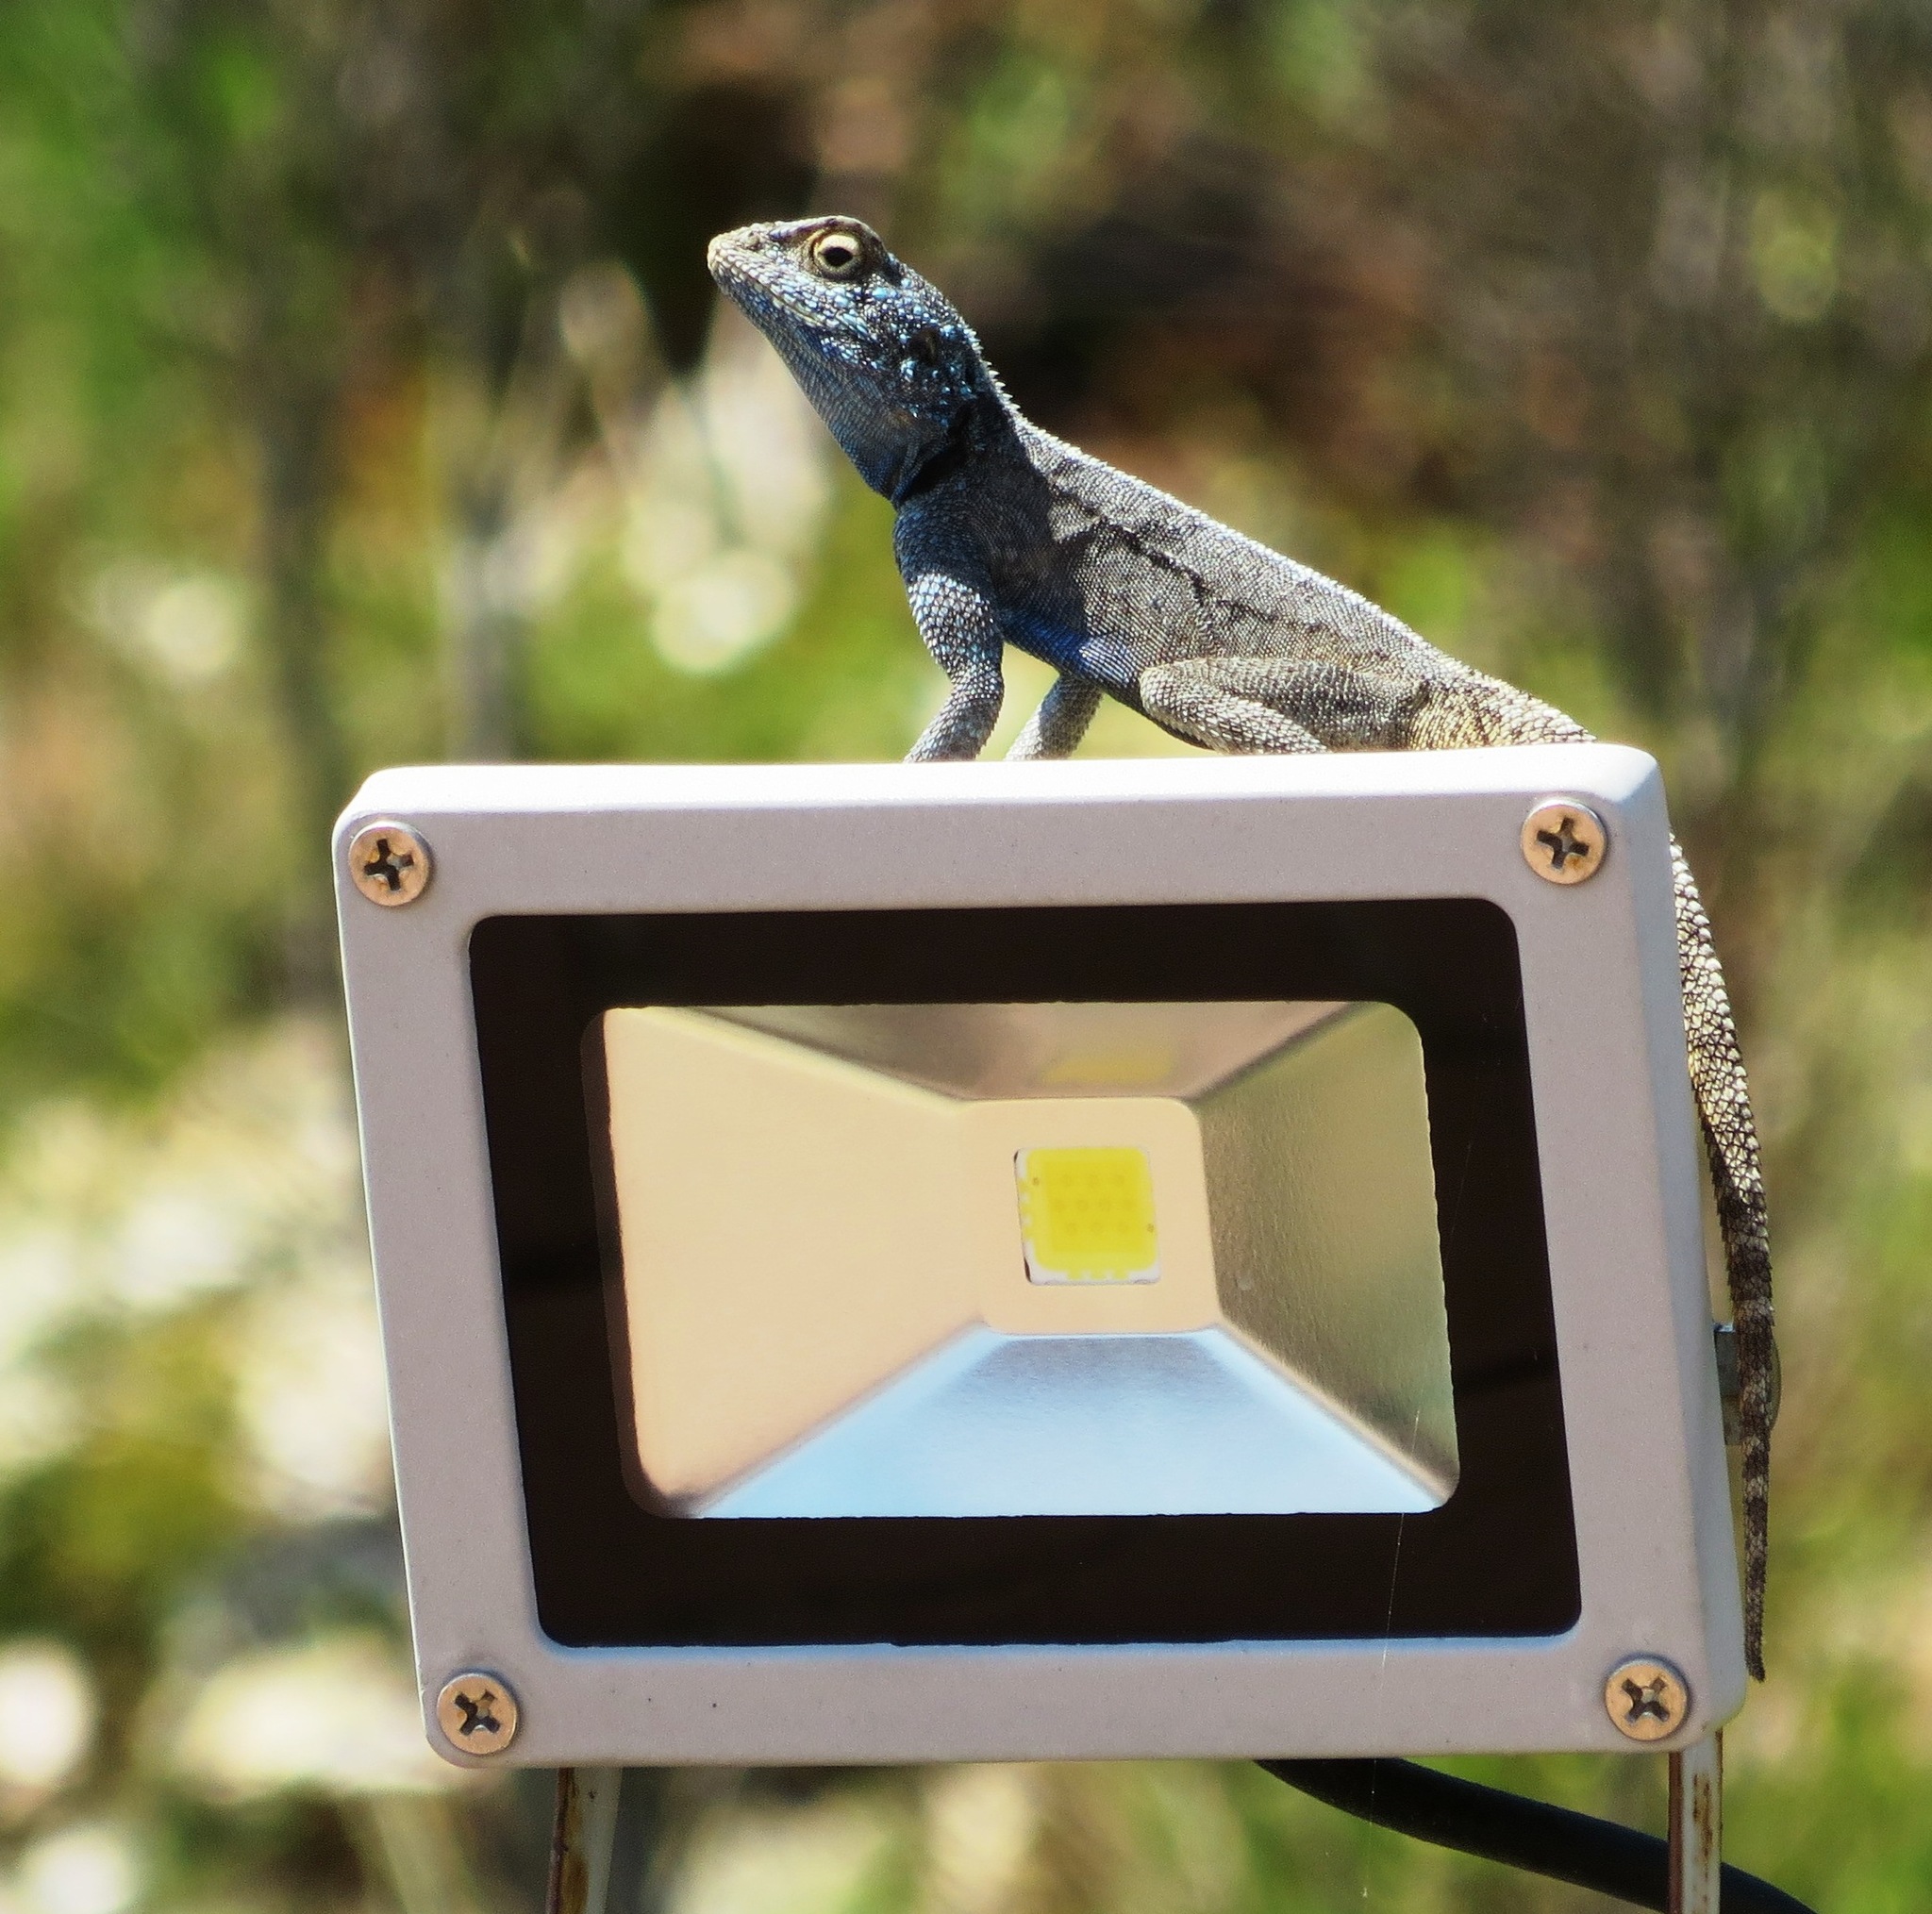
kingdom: Animalia
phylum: Chordata
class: Squamata
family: Agamidae
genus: Agama
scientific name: Agama atra
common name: Southern african rock agama
